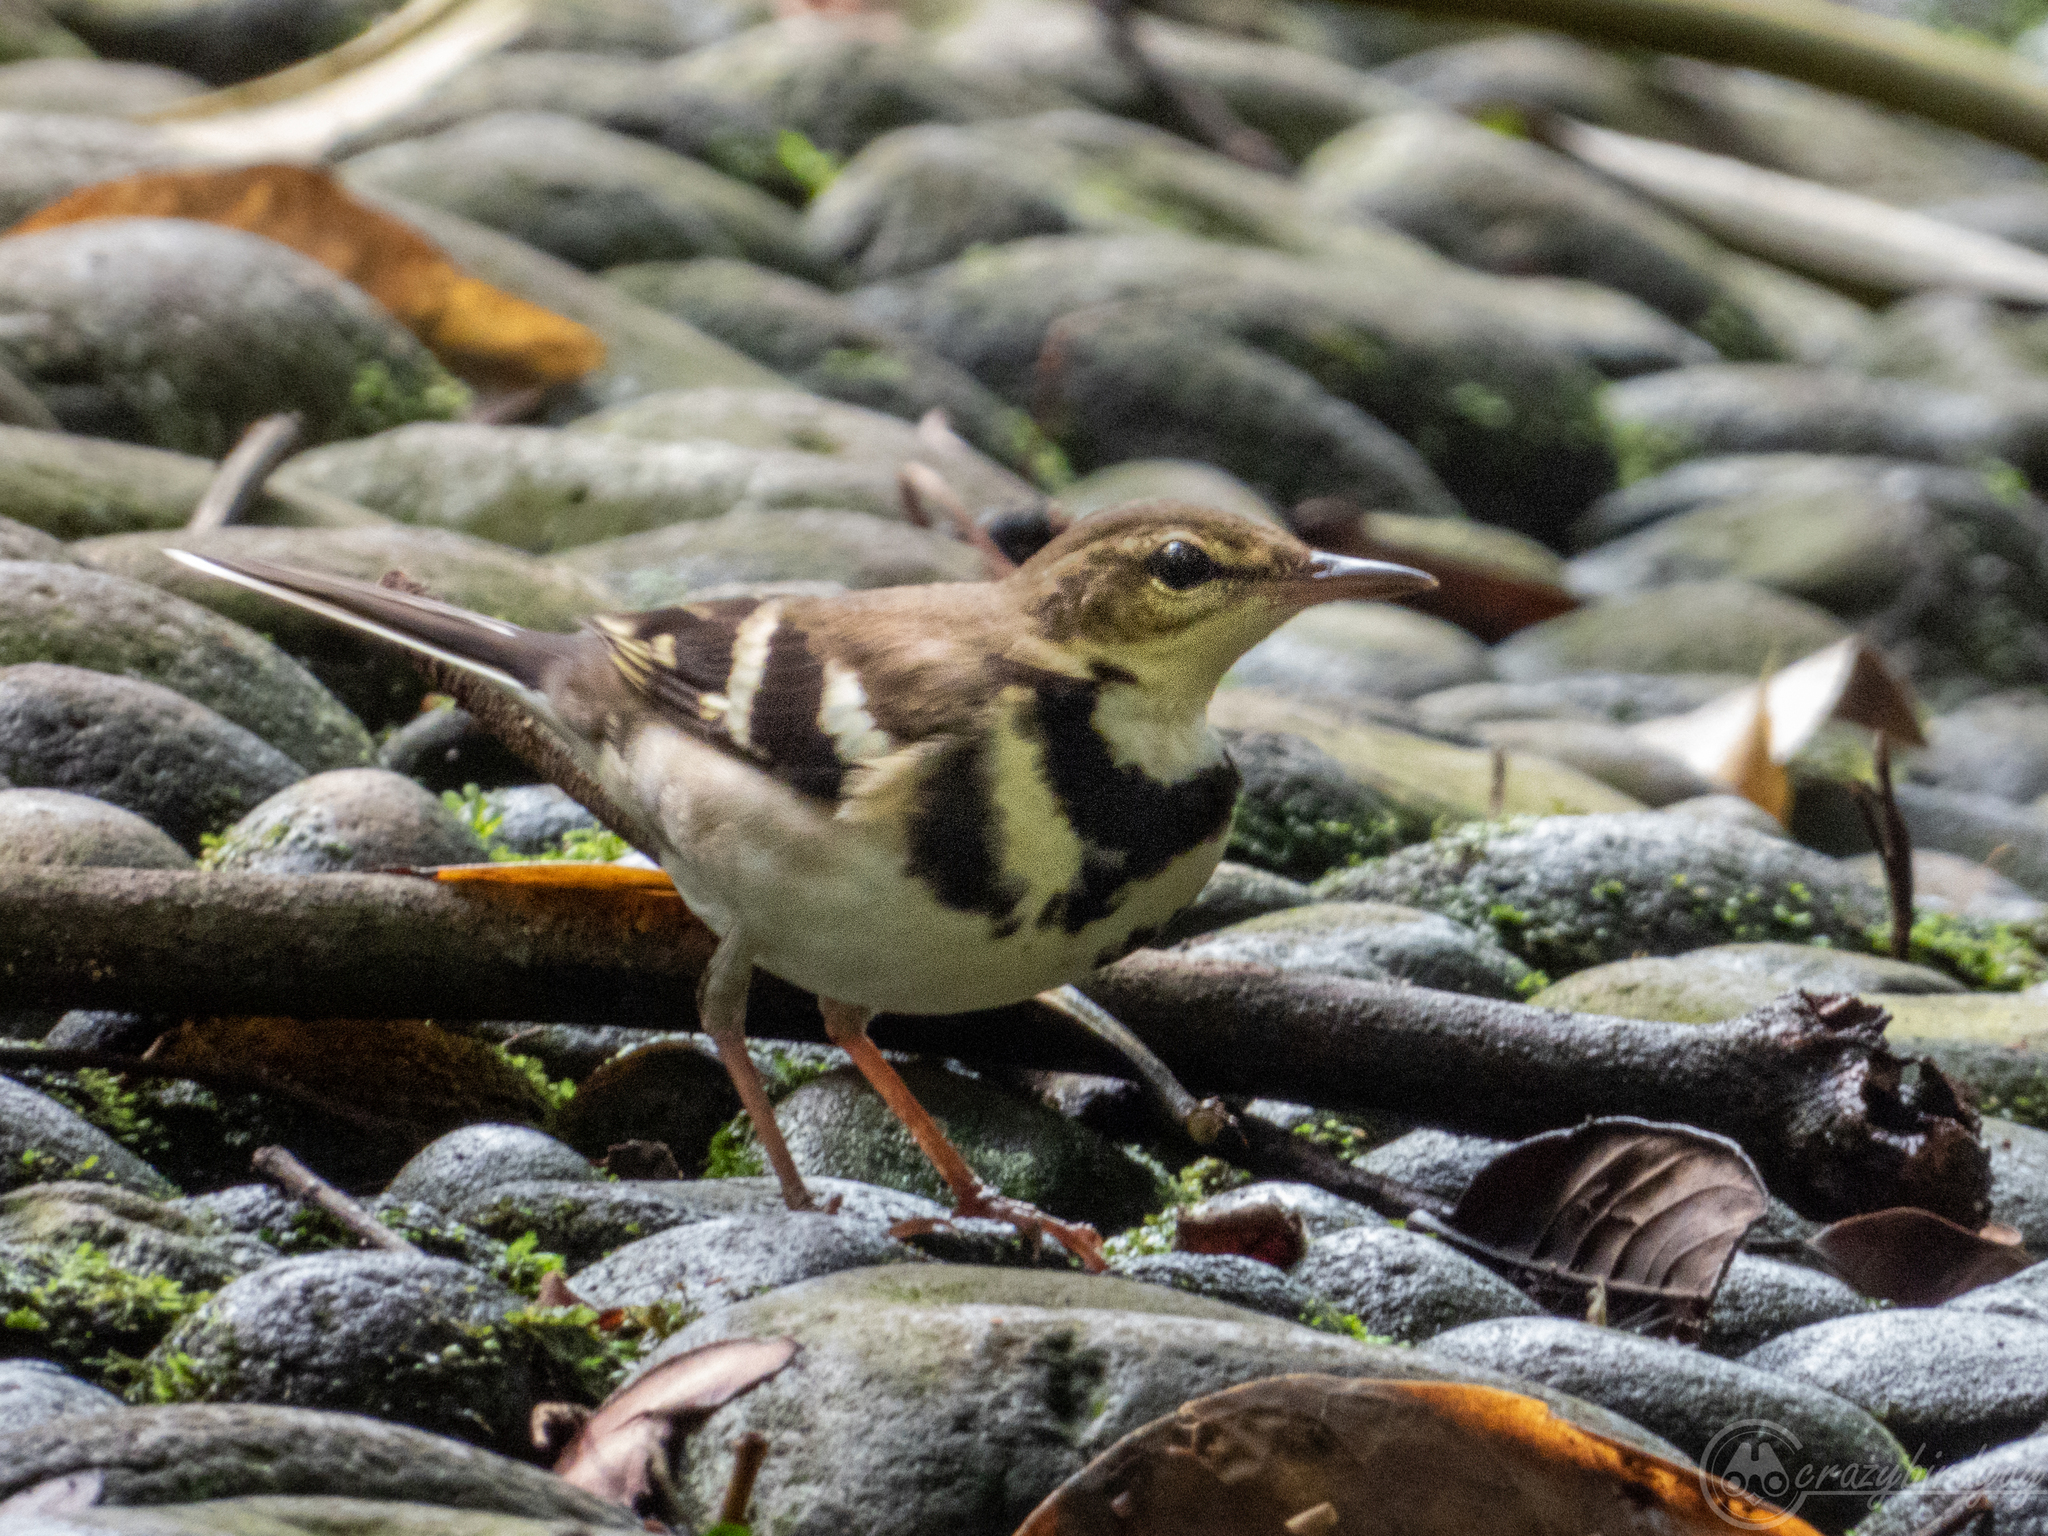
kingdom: Animalia
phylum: Chordata
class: Aves
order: Passeriformes
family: Motacillidae
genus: Dendronanthus
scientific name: Dendronanthus indicus
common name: Forest wagtail
